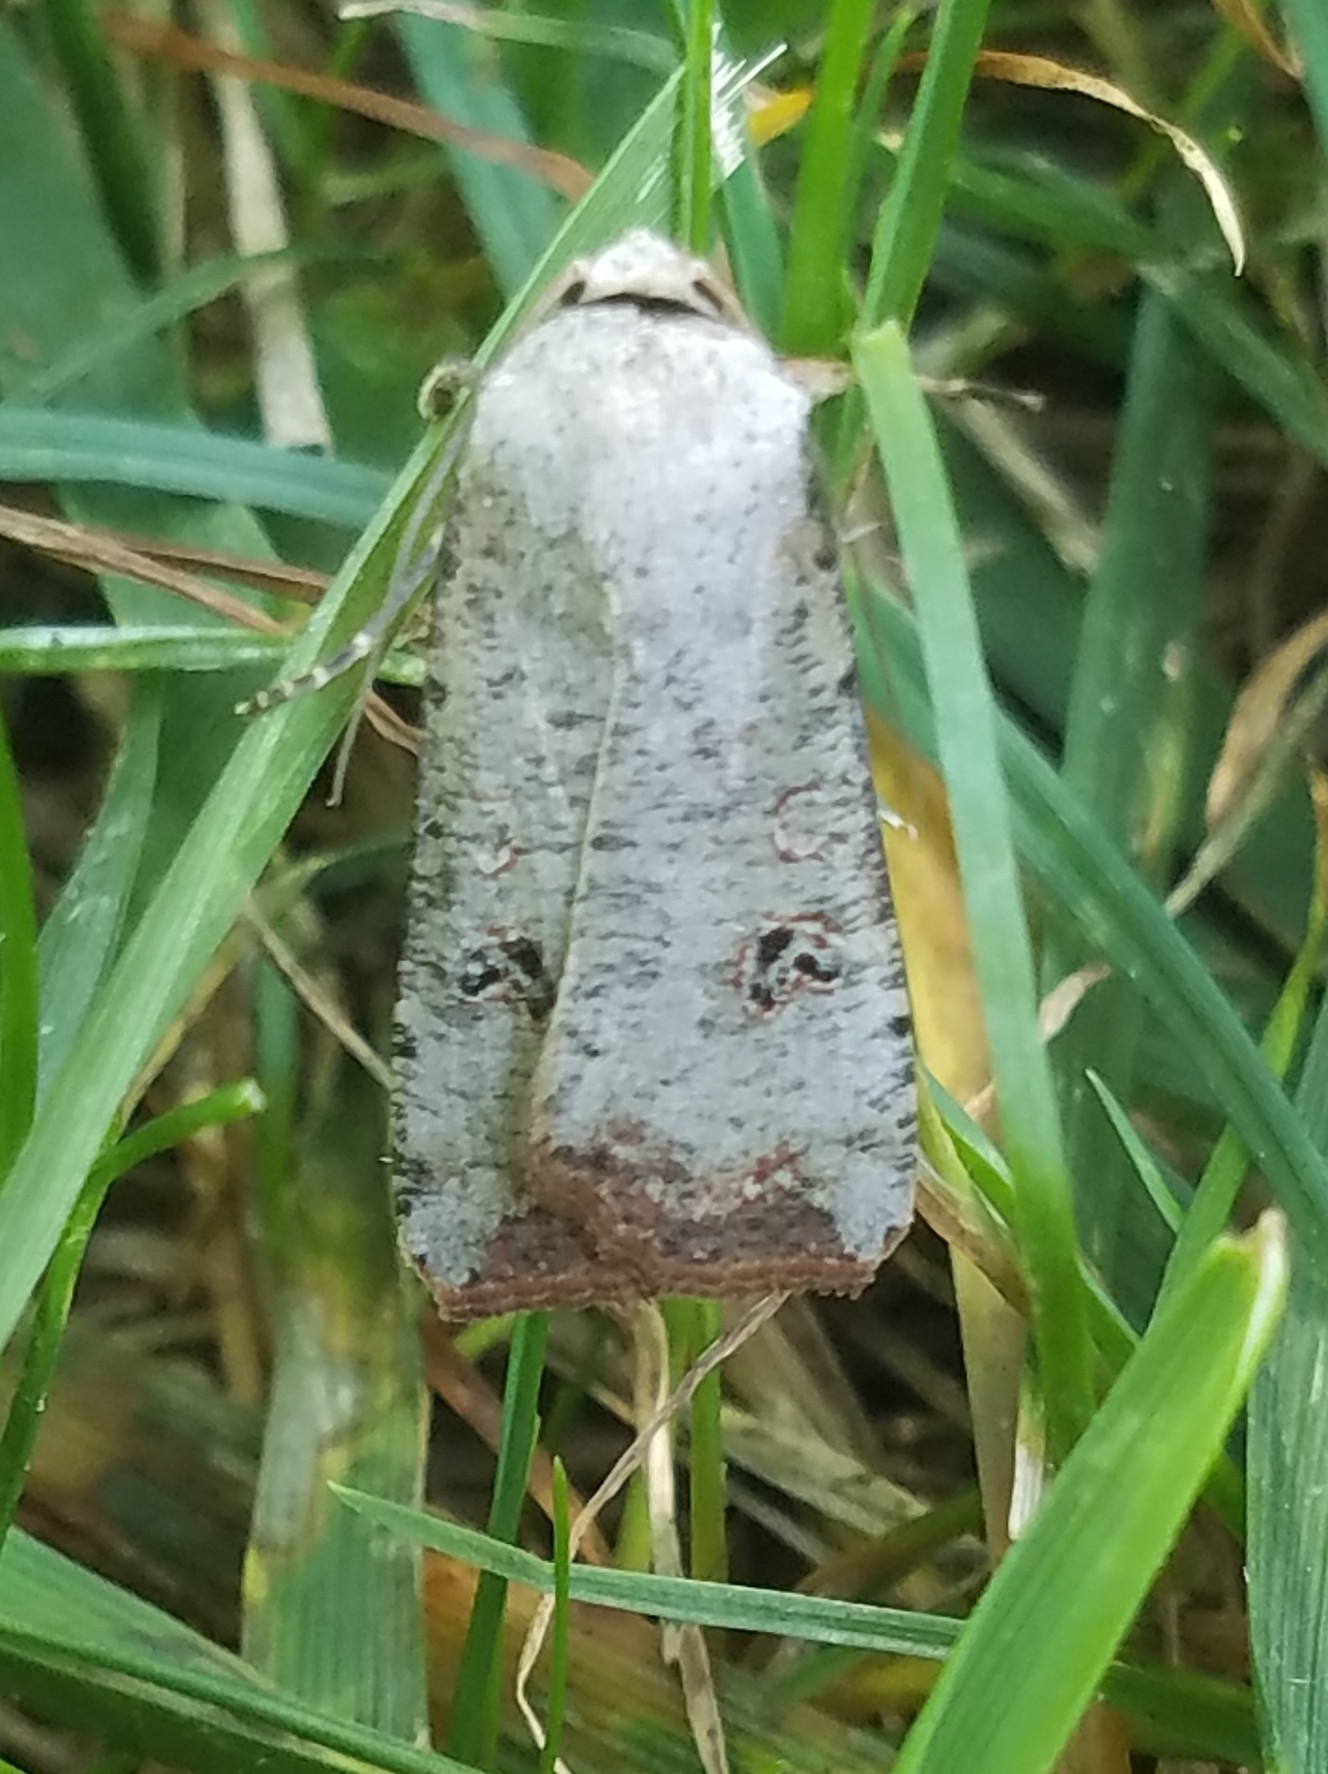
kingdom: Animalia
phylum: Arthropoda
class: Insecta
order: Lepidoptera
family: Noctuidae
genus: Anicla
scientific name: Anicla infecta
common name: Green cutworm
